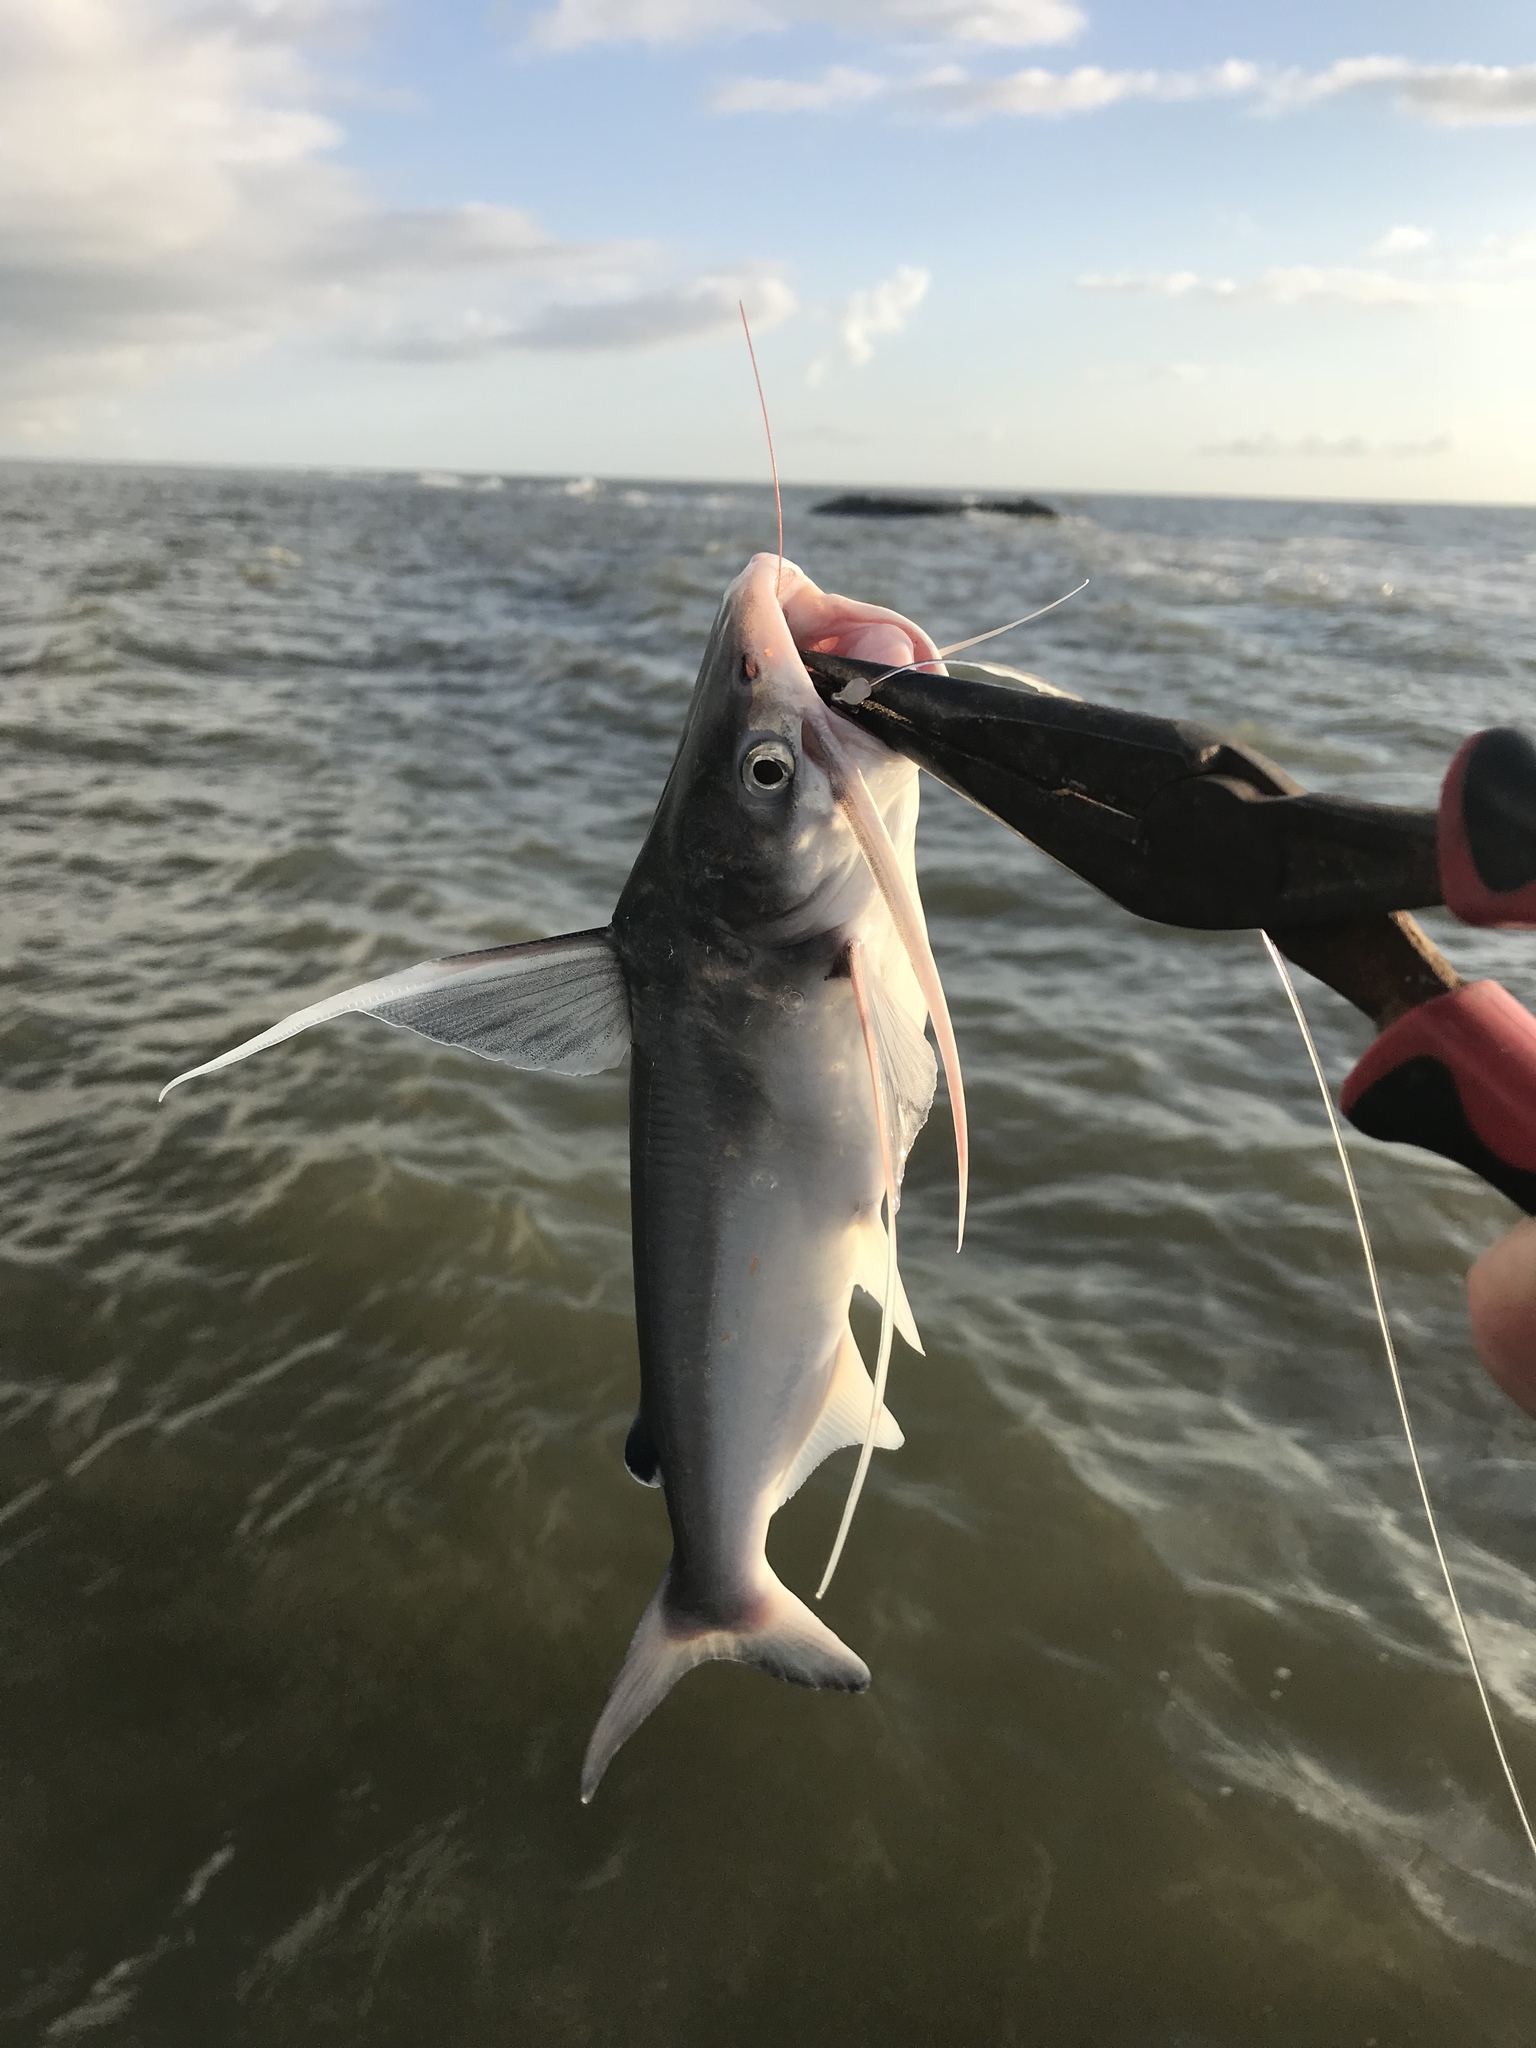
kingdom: Animalia
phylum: Chordata
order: Siluriformes
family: Ariidae
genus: Bagre
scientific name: Bagre marinus
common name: Gafftopsail sea catfish
